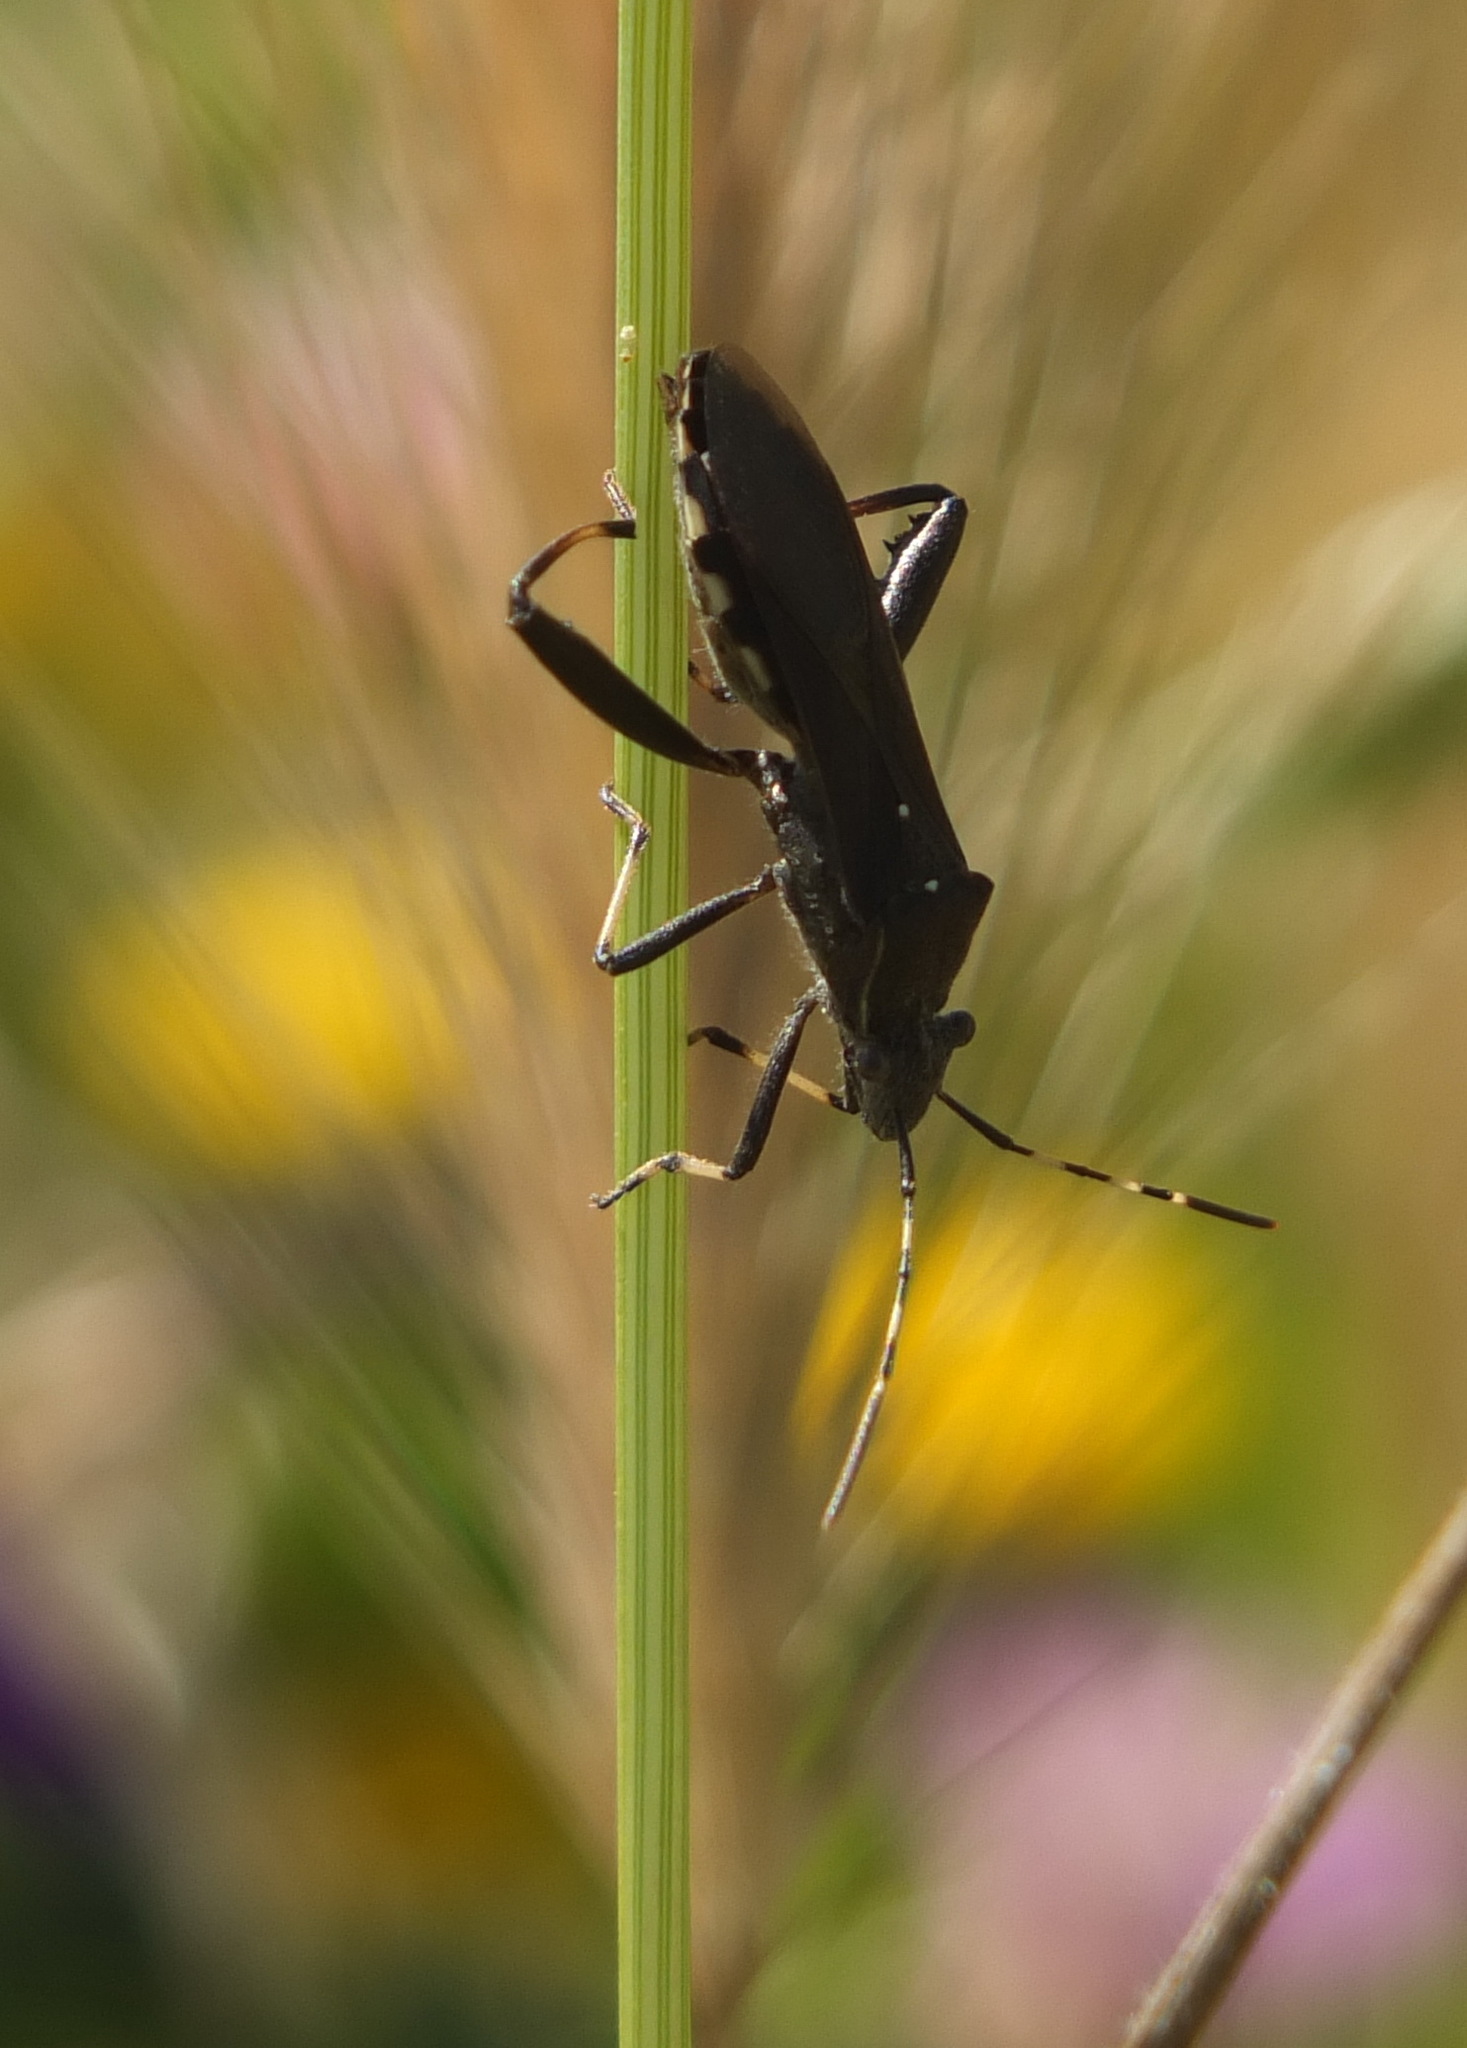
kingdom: Animalia
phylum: Arthropoda
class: Insecta
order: Hemiptera
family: Alydidae
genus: Camptopus
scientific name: Camptopus lateralis
